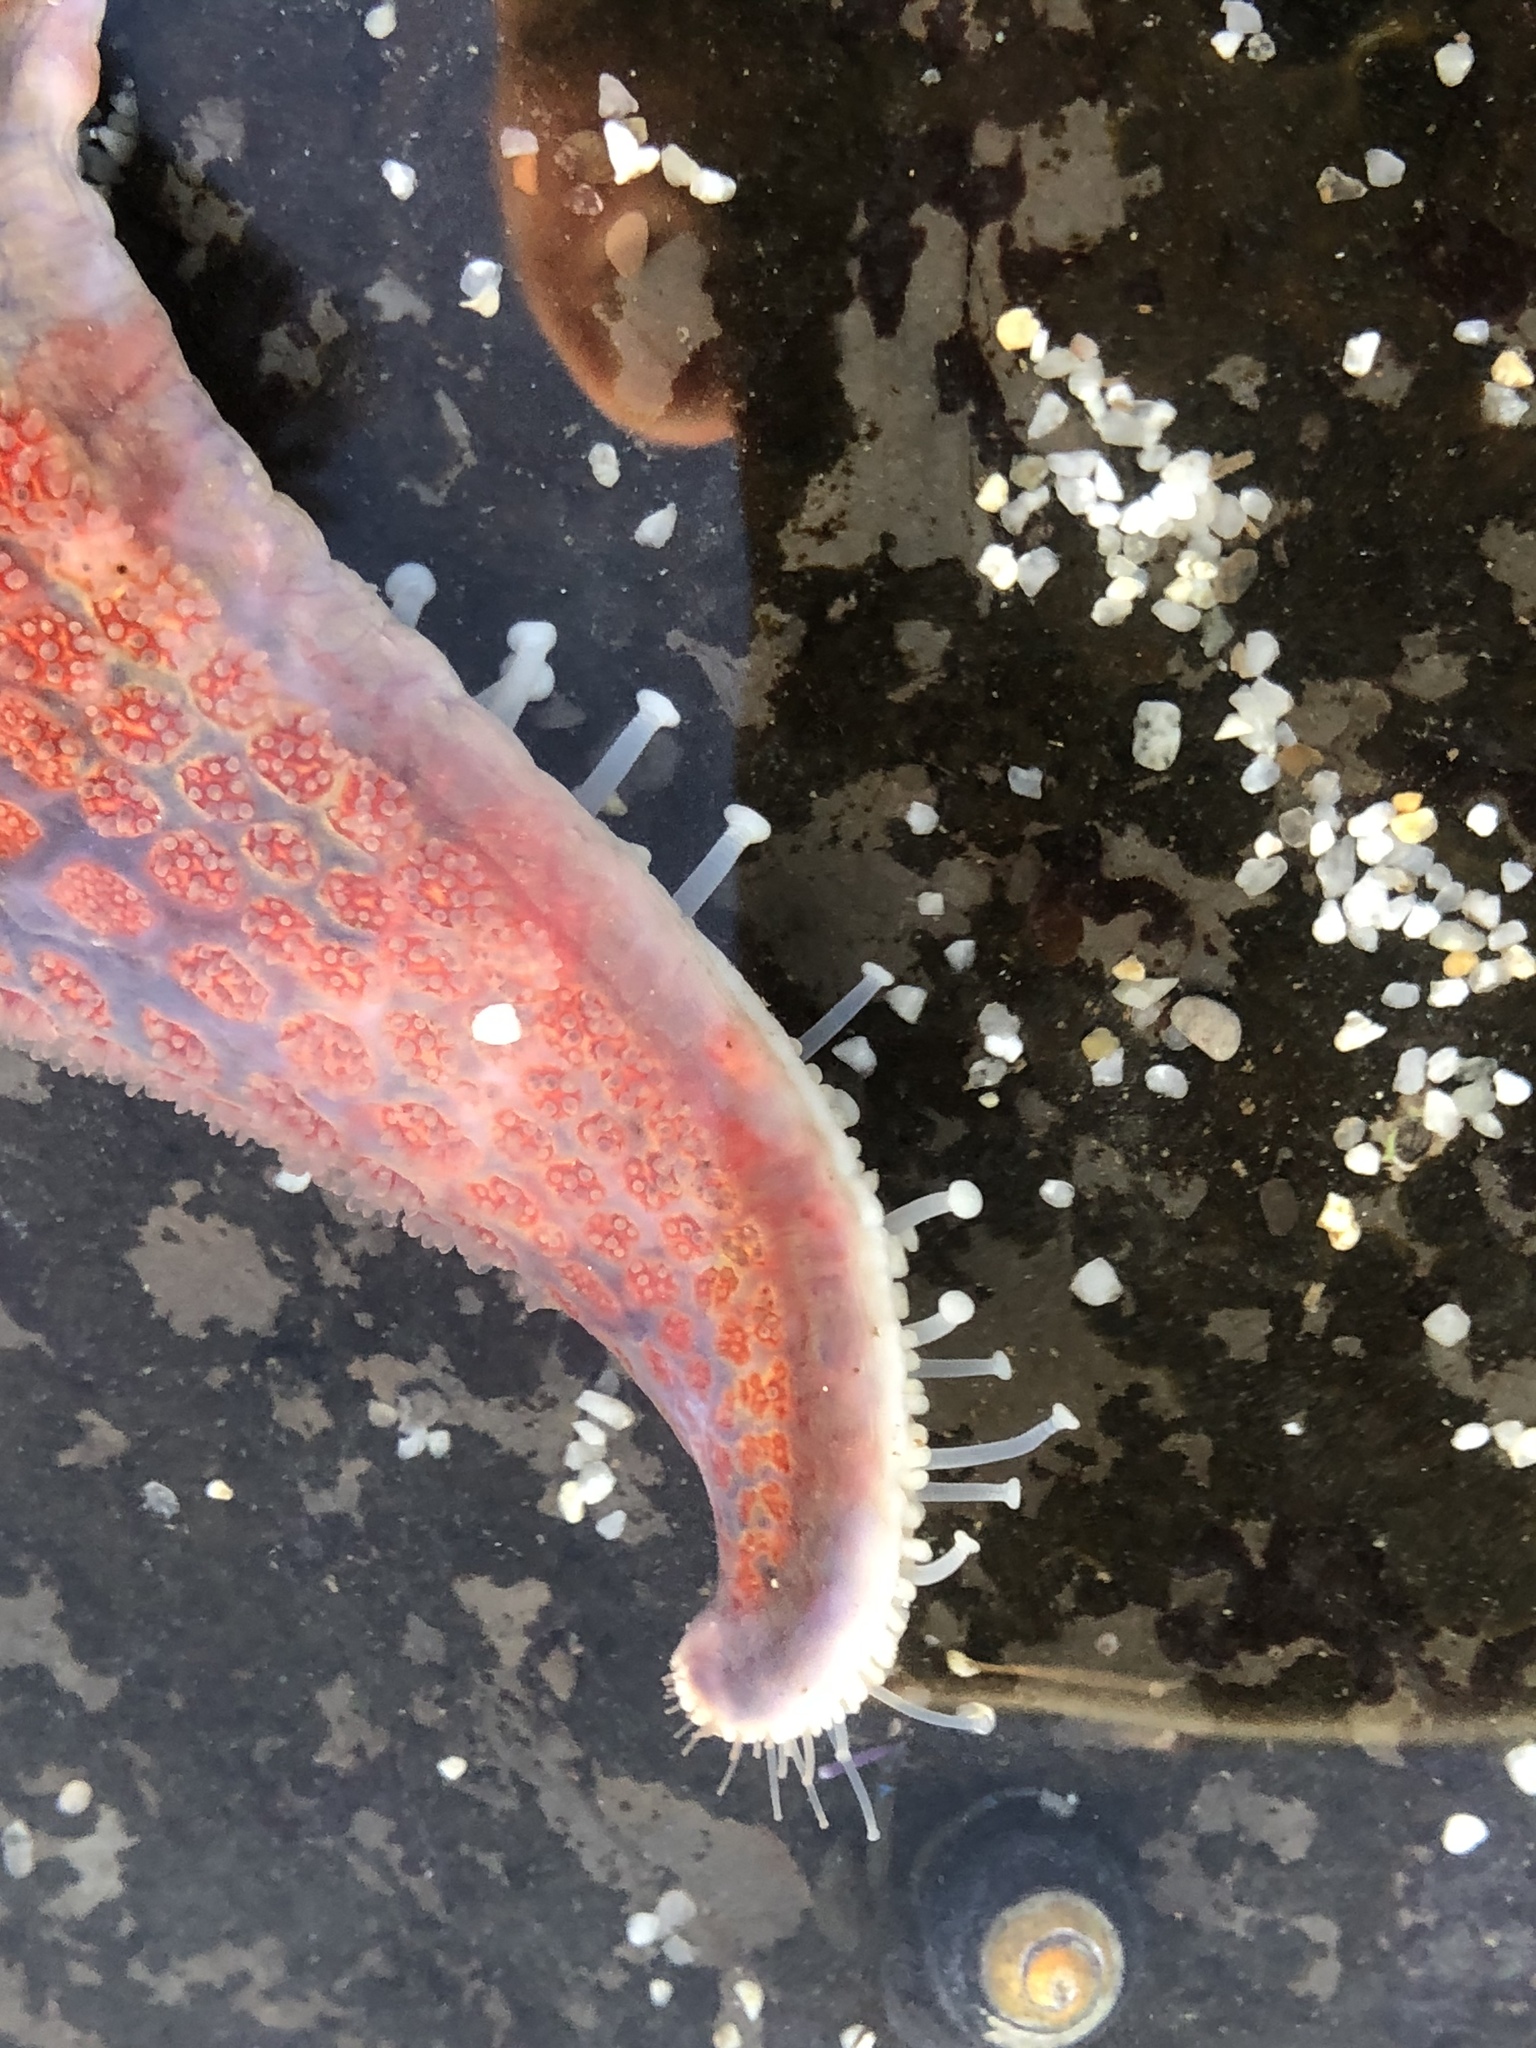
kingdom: Animalia
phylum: Echinodermata
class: Asteroidea
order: Valvatida
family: Asteropseidae
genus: Dermasterias
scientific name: Dermasterias imbricata
